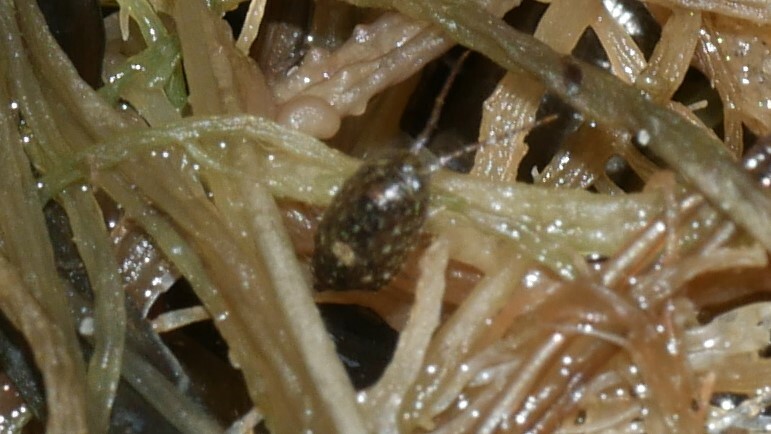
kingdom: Animalia
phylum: Arthropoda
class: Malacostraca
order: Isopoda
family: Ligiidae
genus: Ligia
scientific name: Ligia exotica
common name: Wharf roach
